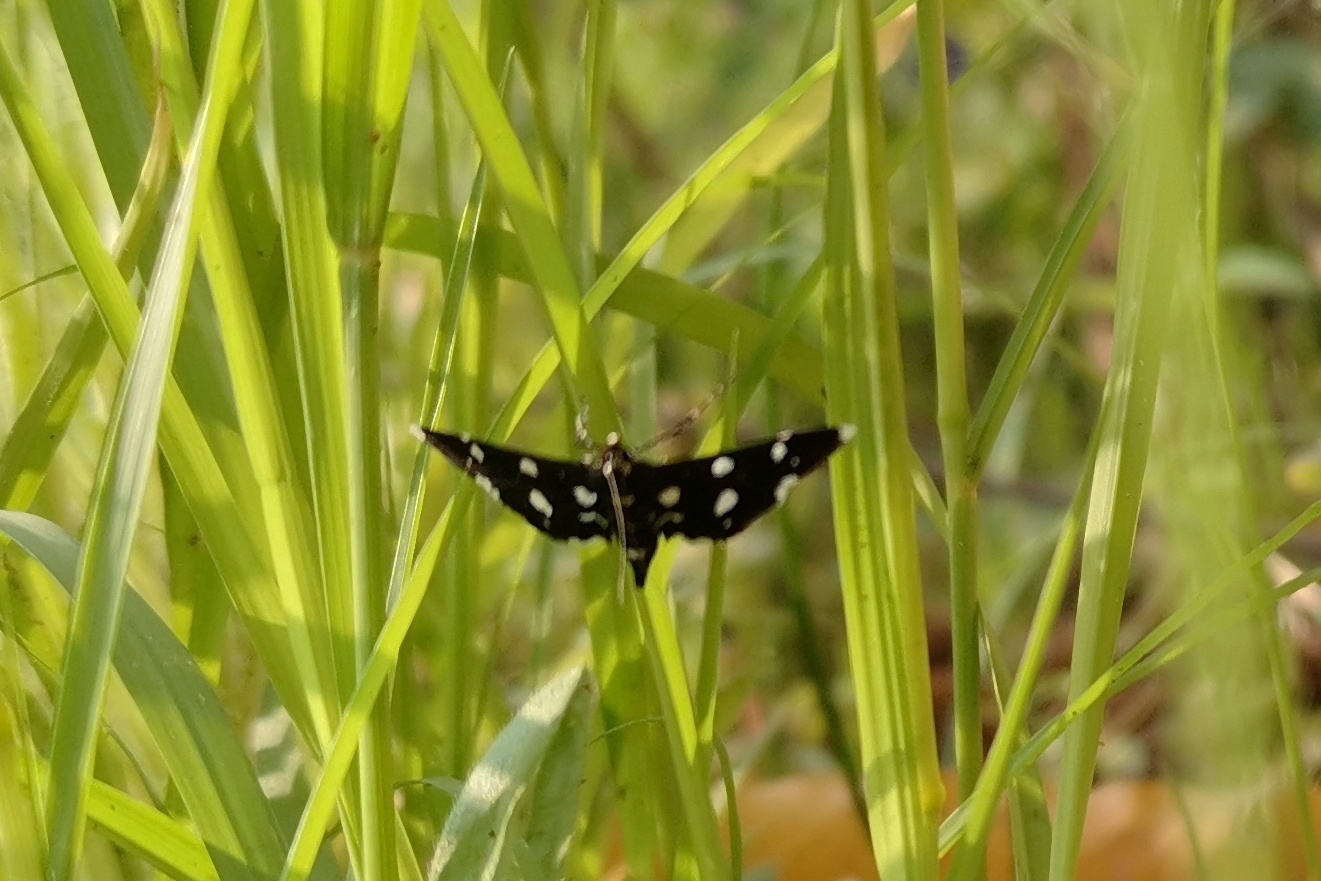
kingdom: Animalia
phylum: Arthropoda
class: Insecta
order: Lepidoptera
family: Crambidae
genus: Bocchoris
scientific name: Bocchoris inspersalis
